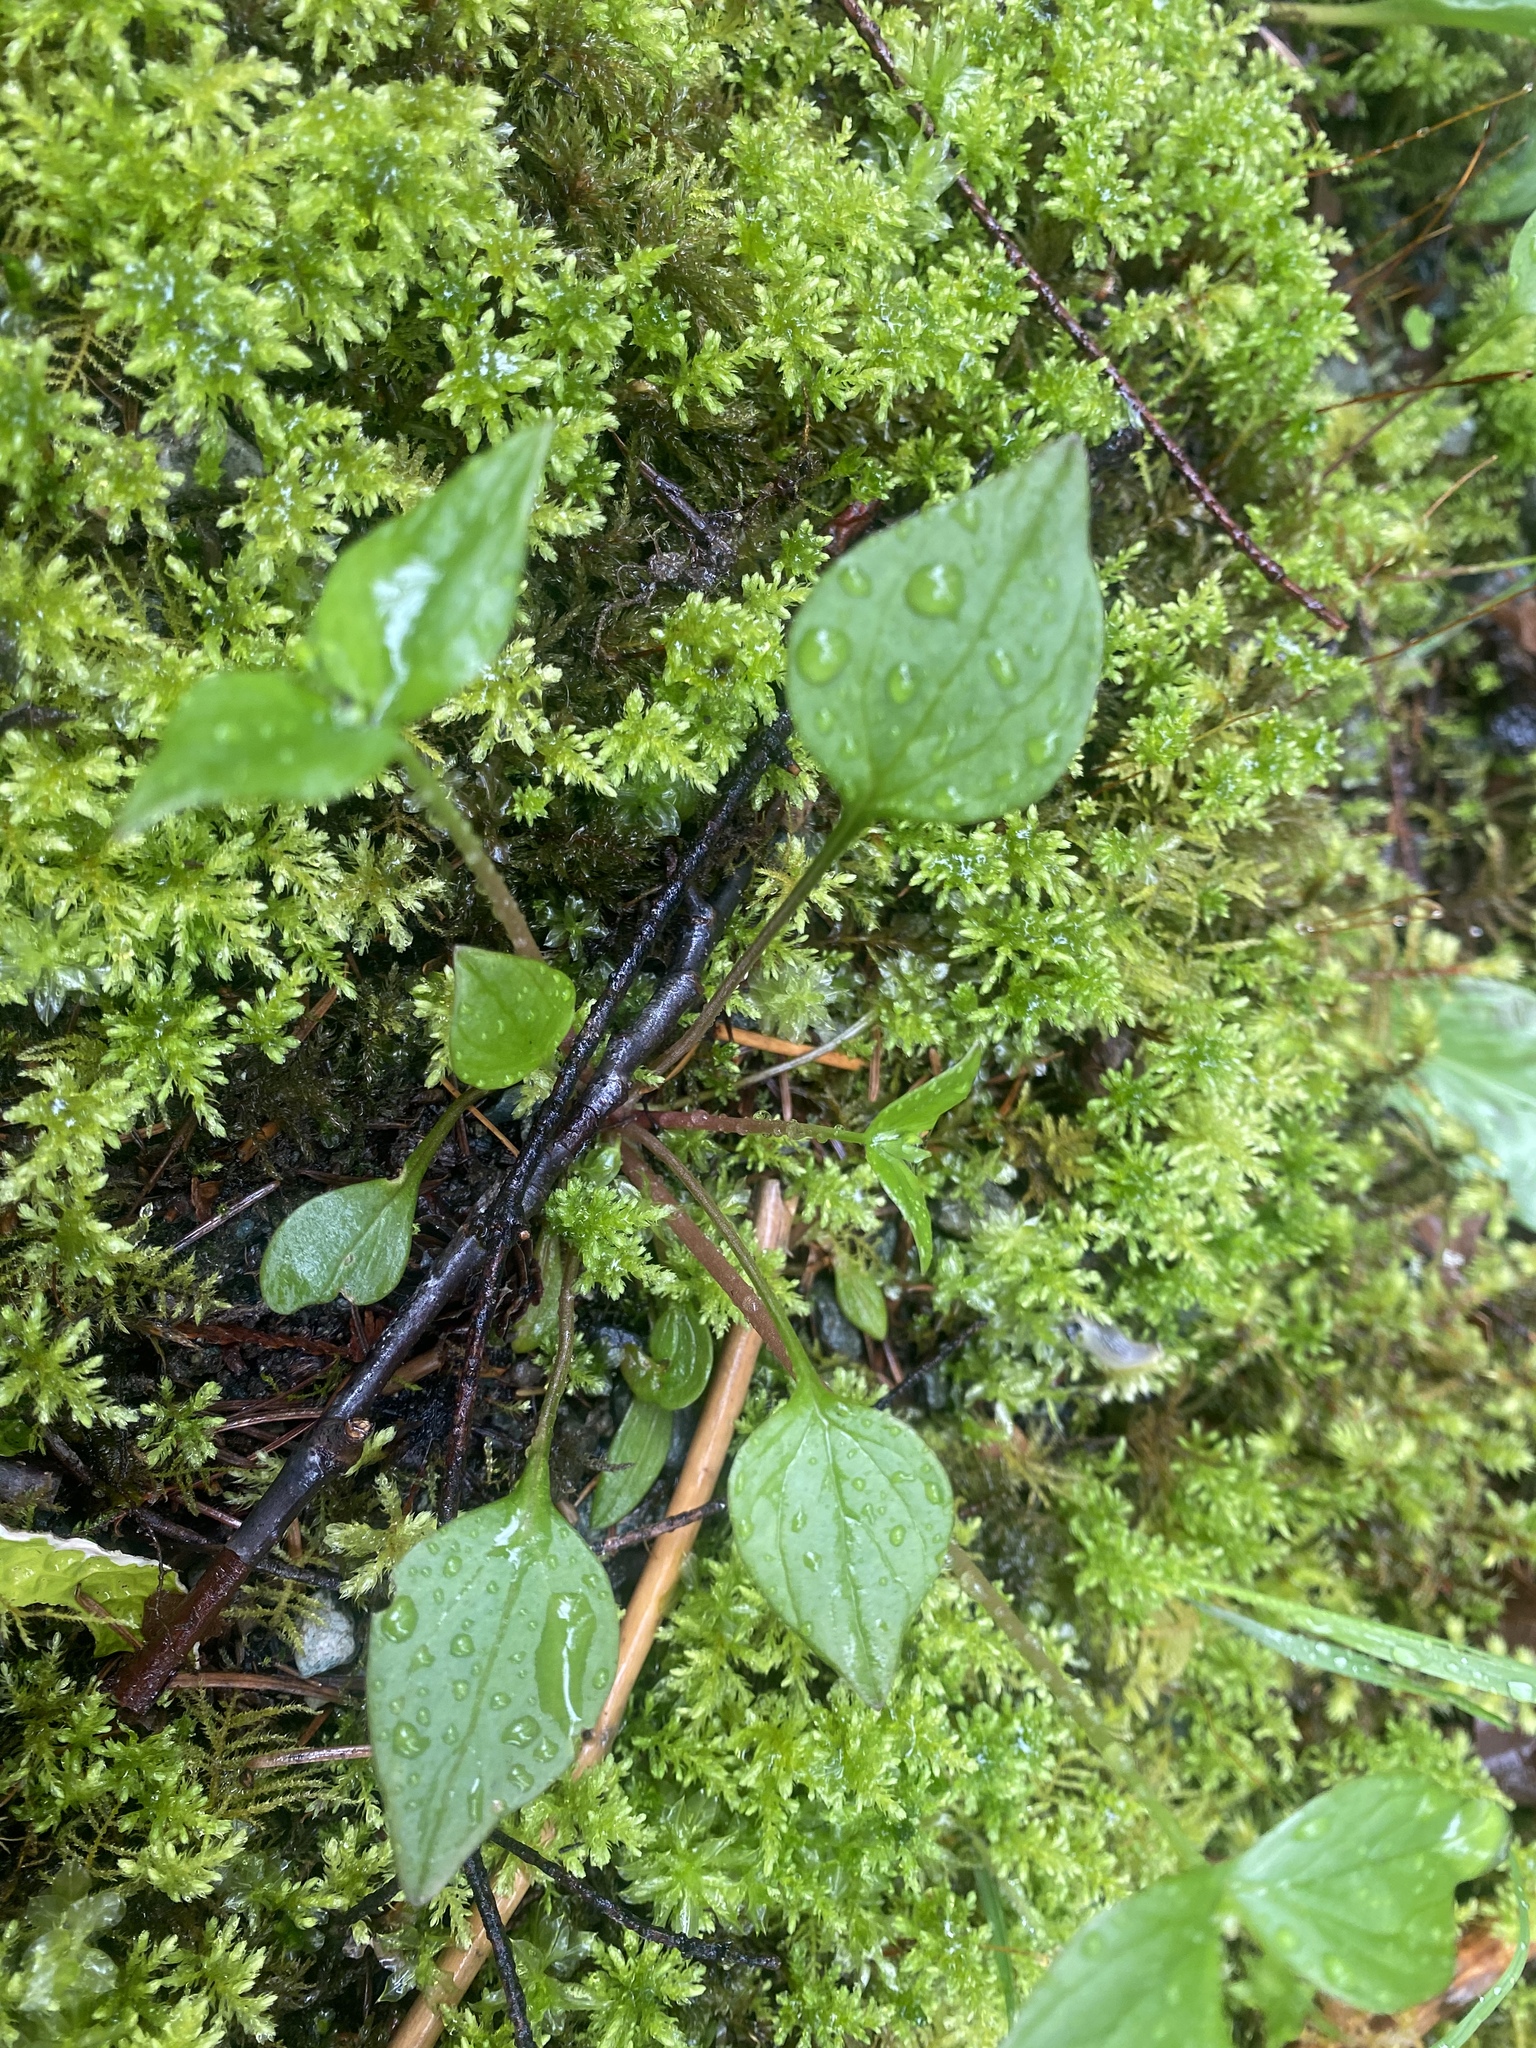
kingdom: Plantae
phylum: Tracheophyta
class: Magnoliopsida
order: Caryophyllales
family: Montiaceae
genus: Claytonia
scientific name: Claytonia sibirica
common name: Pink purslane
